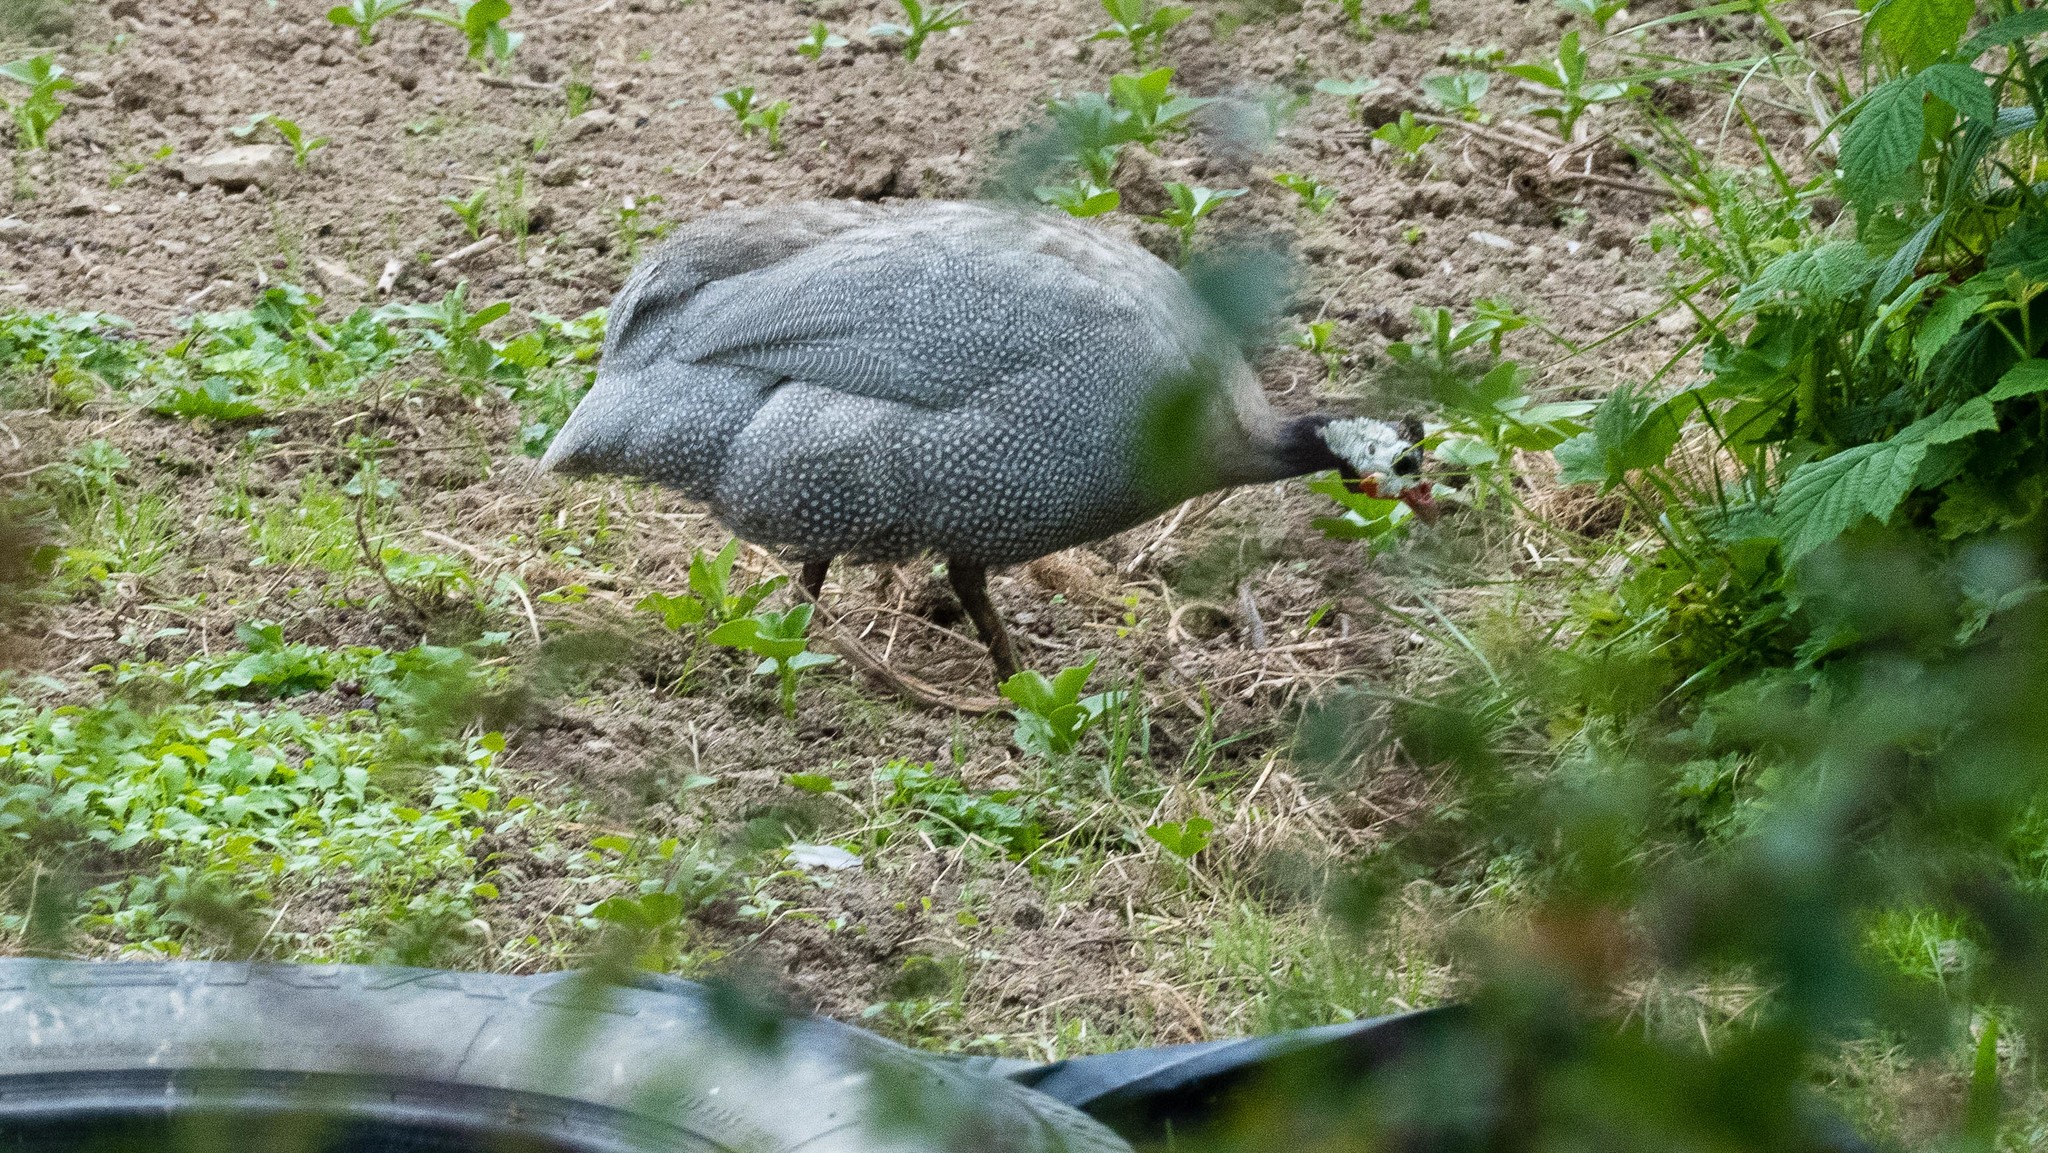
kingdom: Animalia
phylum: Chordata
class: Aves
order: Galliformes
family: Numididae
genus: Numida
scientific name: Numida meleagris
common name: Helmeted guineafowl
